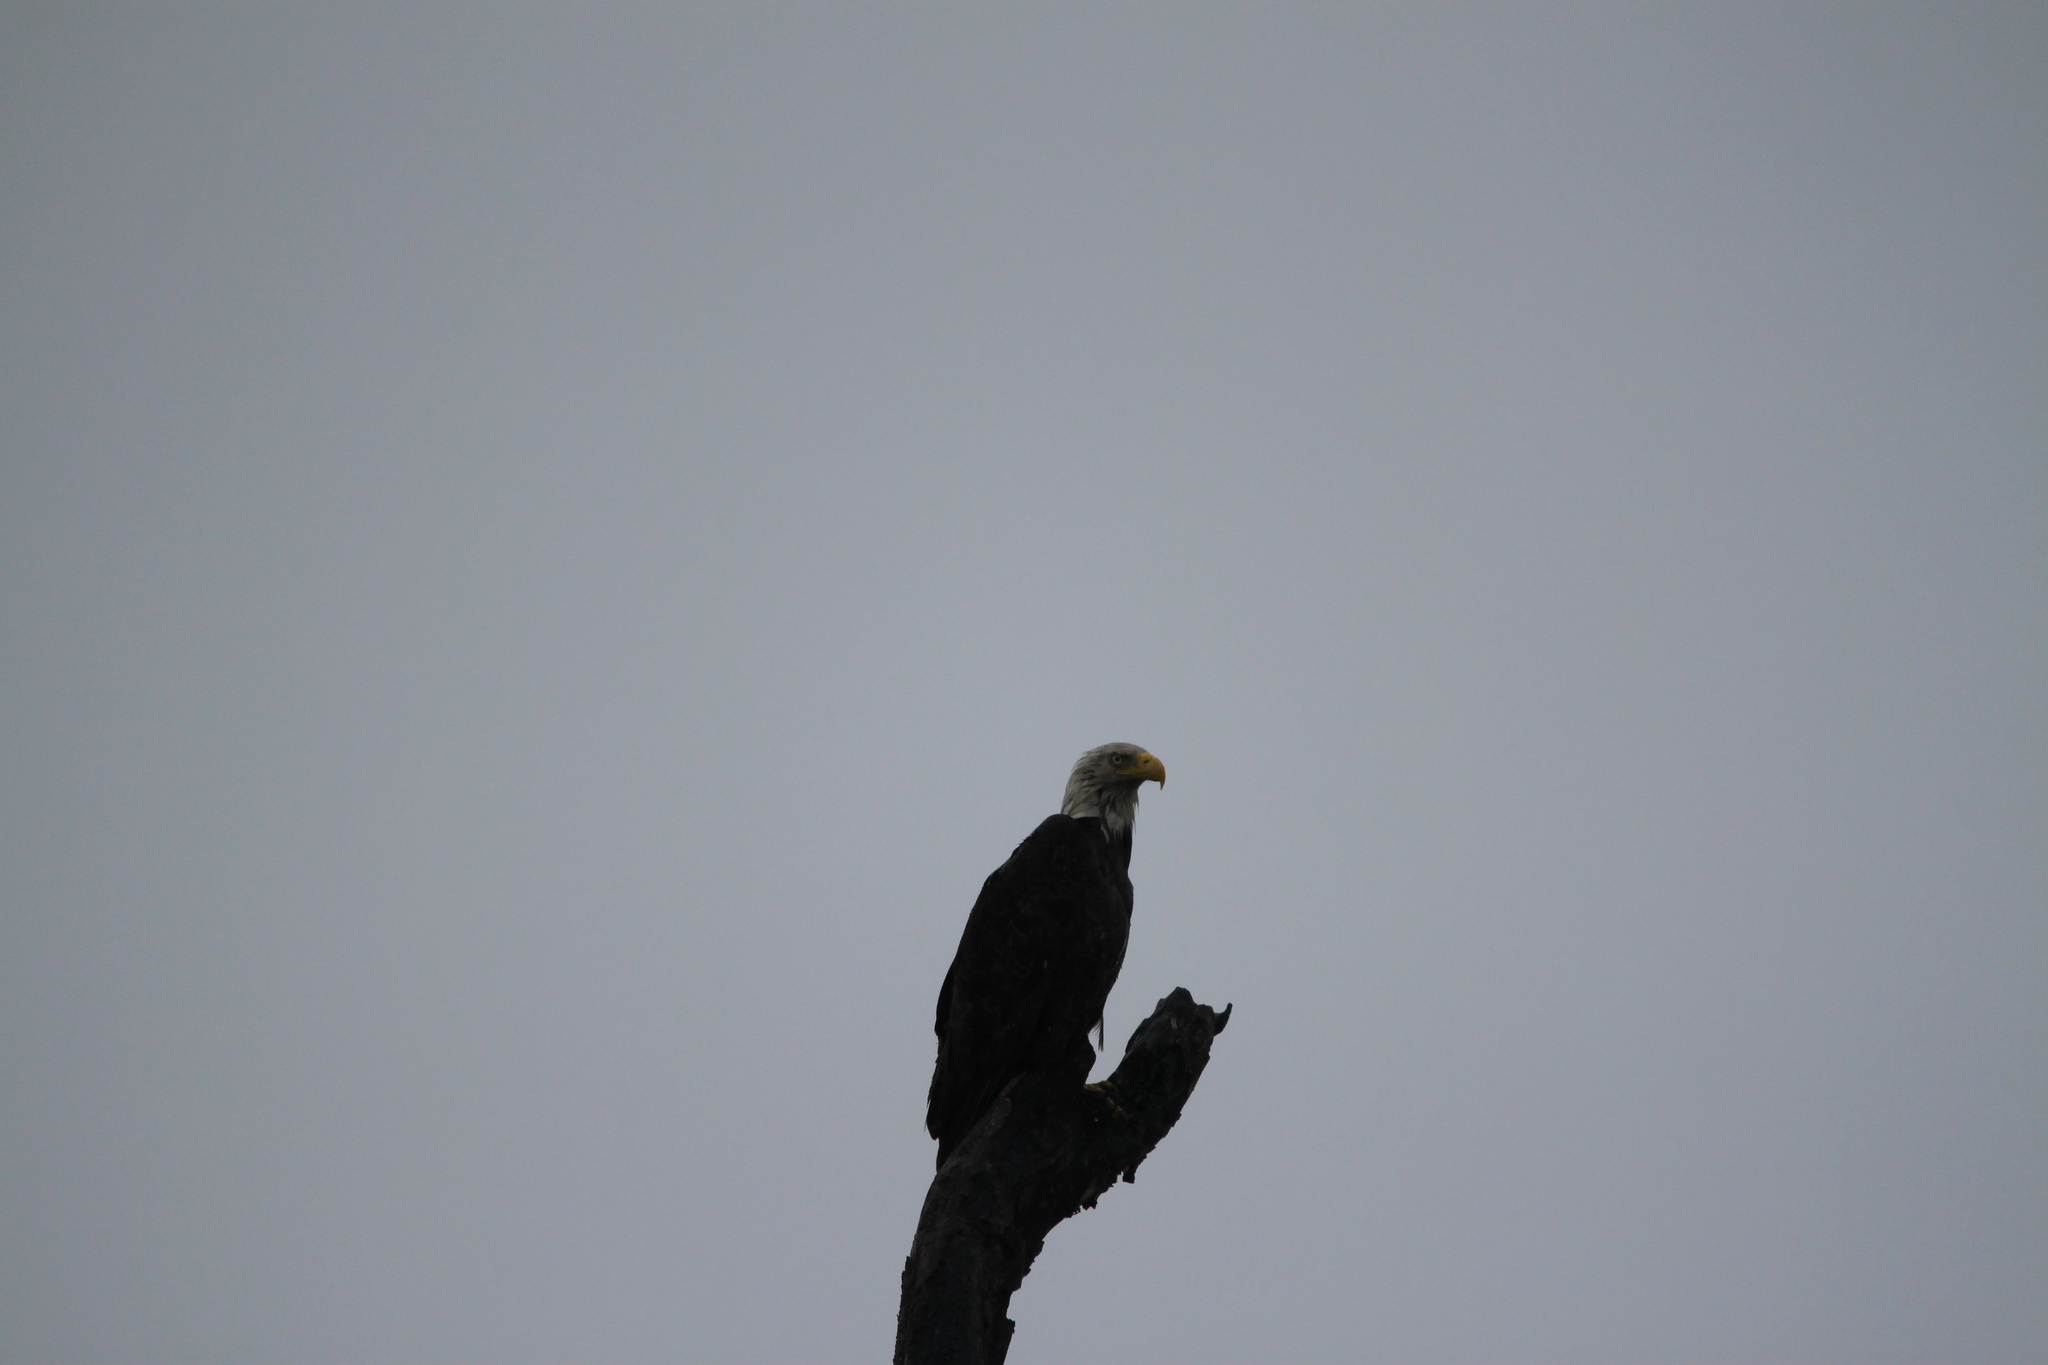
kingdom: Animalia
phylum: Chordata
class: Aves
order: Accipitriformes
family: Accipitridae
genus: Haliaeetus
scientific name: Haliaeetus leucocephalus
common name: Bald eagle
